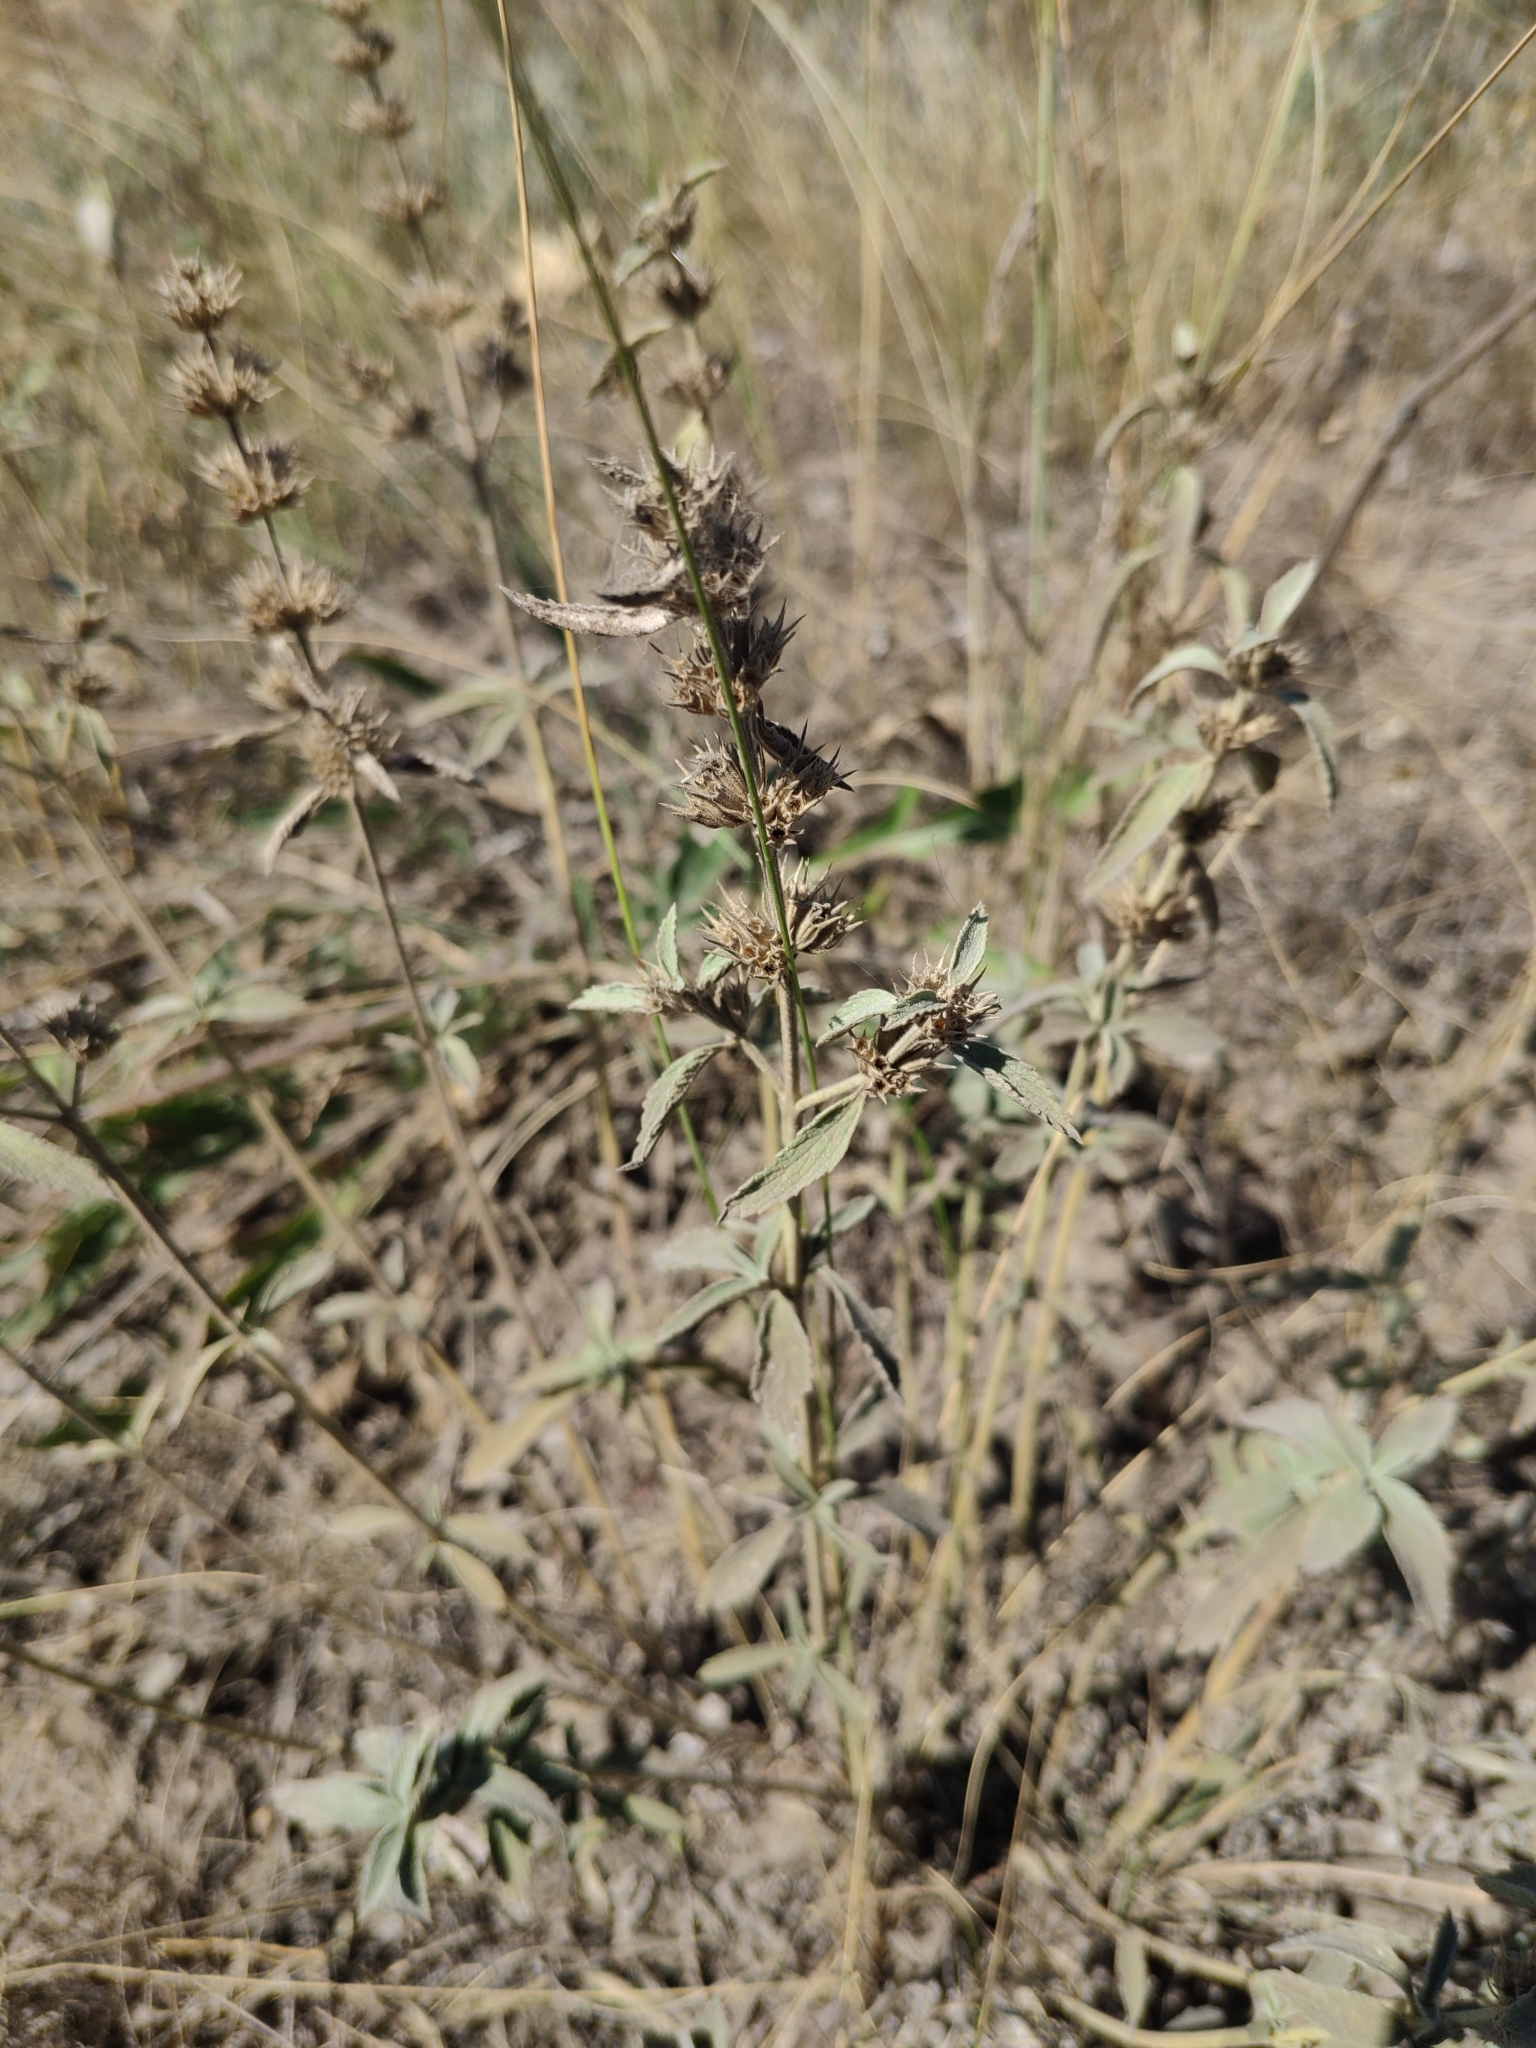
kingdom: Plantae
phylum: Tracheophyta
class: Magnoliopsida
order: Lamiales
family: Lamiaceae
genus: Marrubium
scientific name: Marrubium peregrinum
